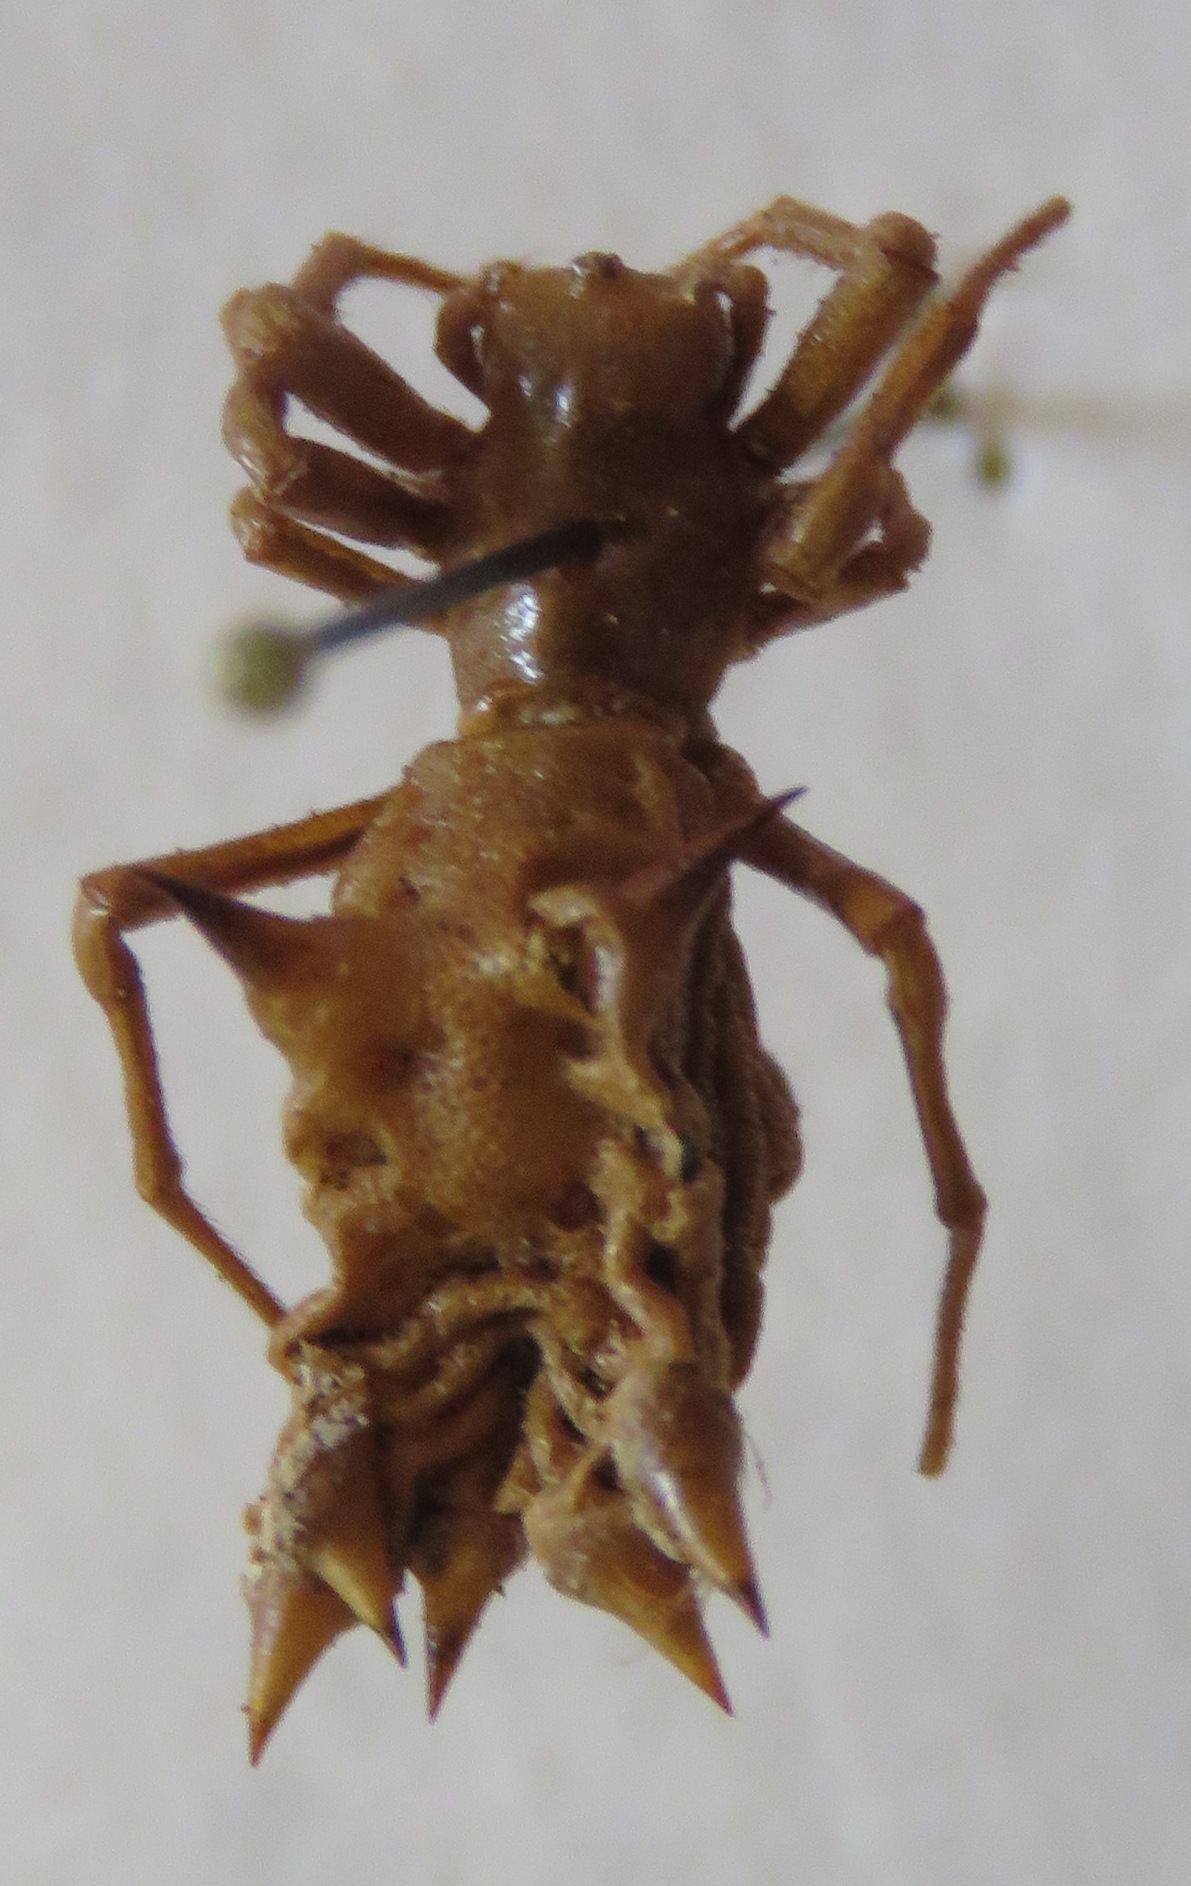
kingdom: Animalia
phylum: Arthropoda
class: Arachnida
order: Araneae
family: Araneidae
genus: Micrathena
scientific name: Micrathena gracilis
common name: Orb weavers
